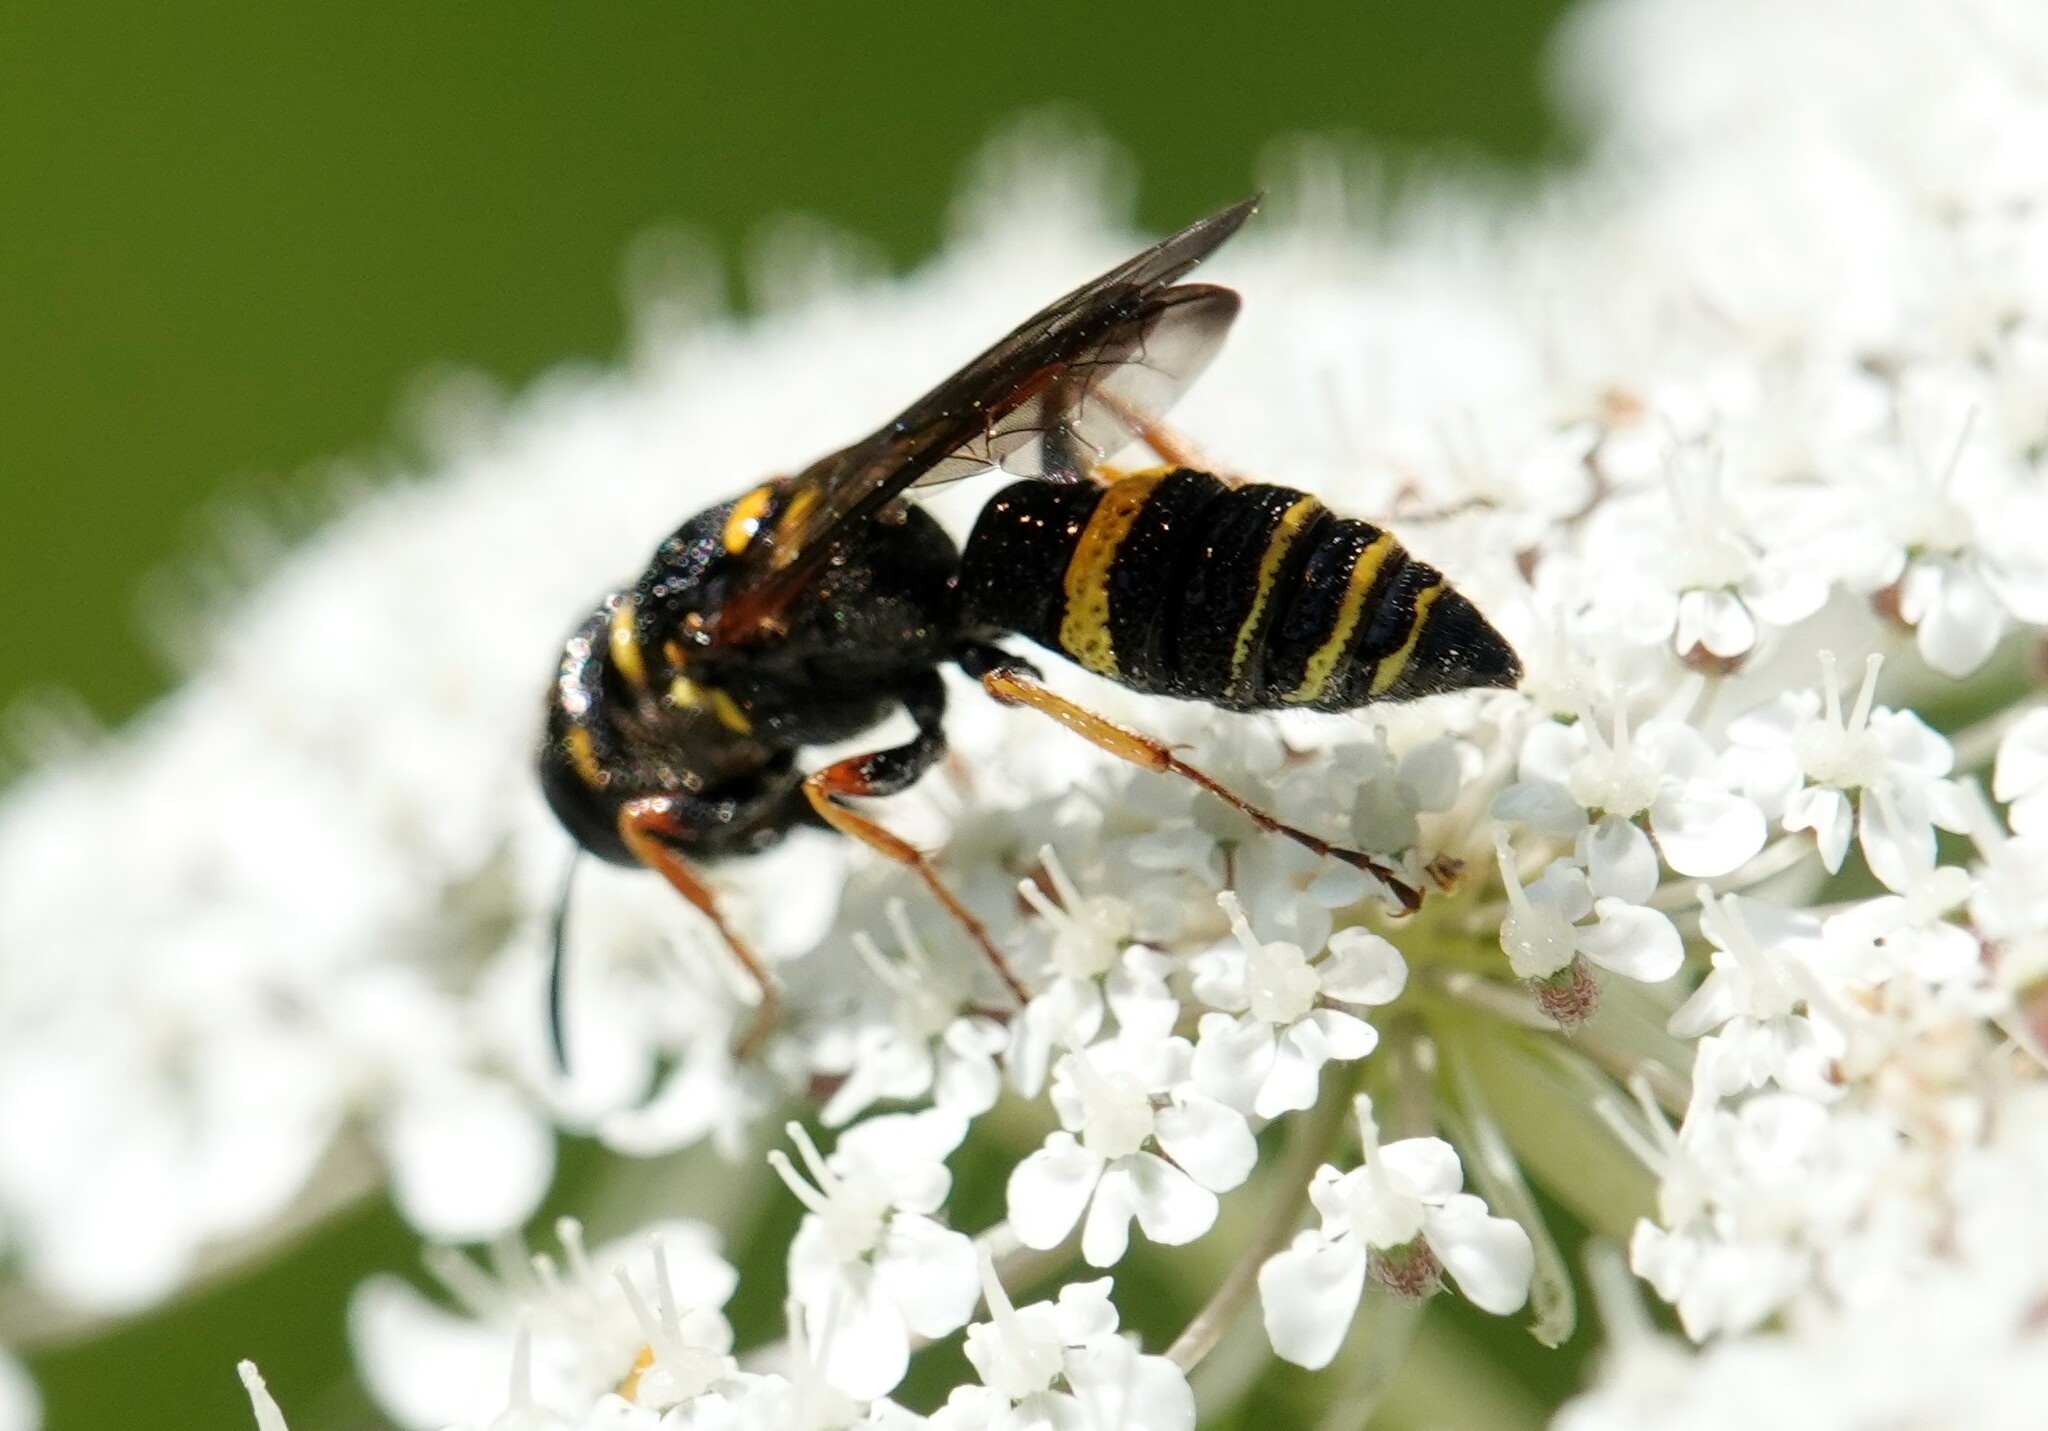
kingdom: Animalia
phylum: Arthropoda
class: Insecta
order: Hymenoptera
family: Crabronidae
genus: Philanthus
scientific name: Philanthus gibbosus
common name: Humped beewolf
